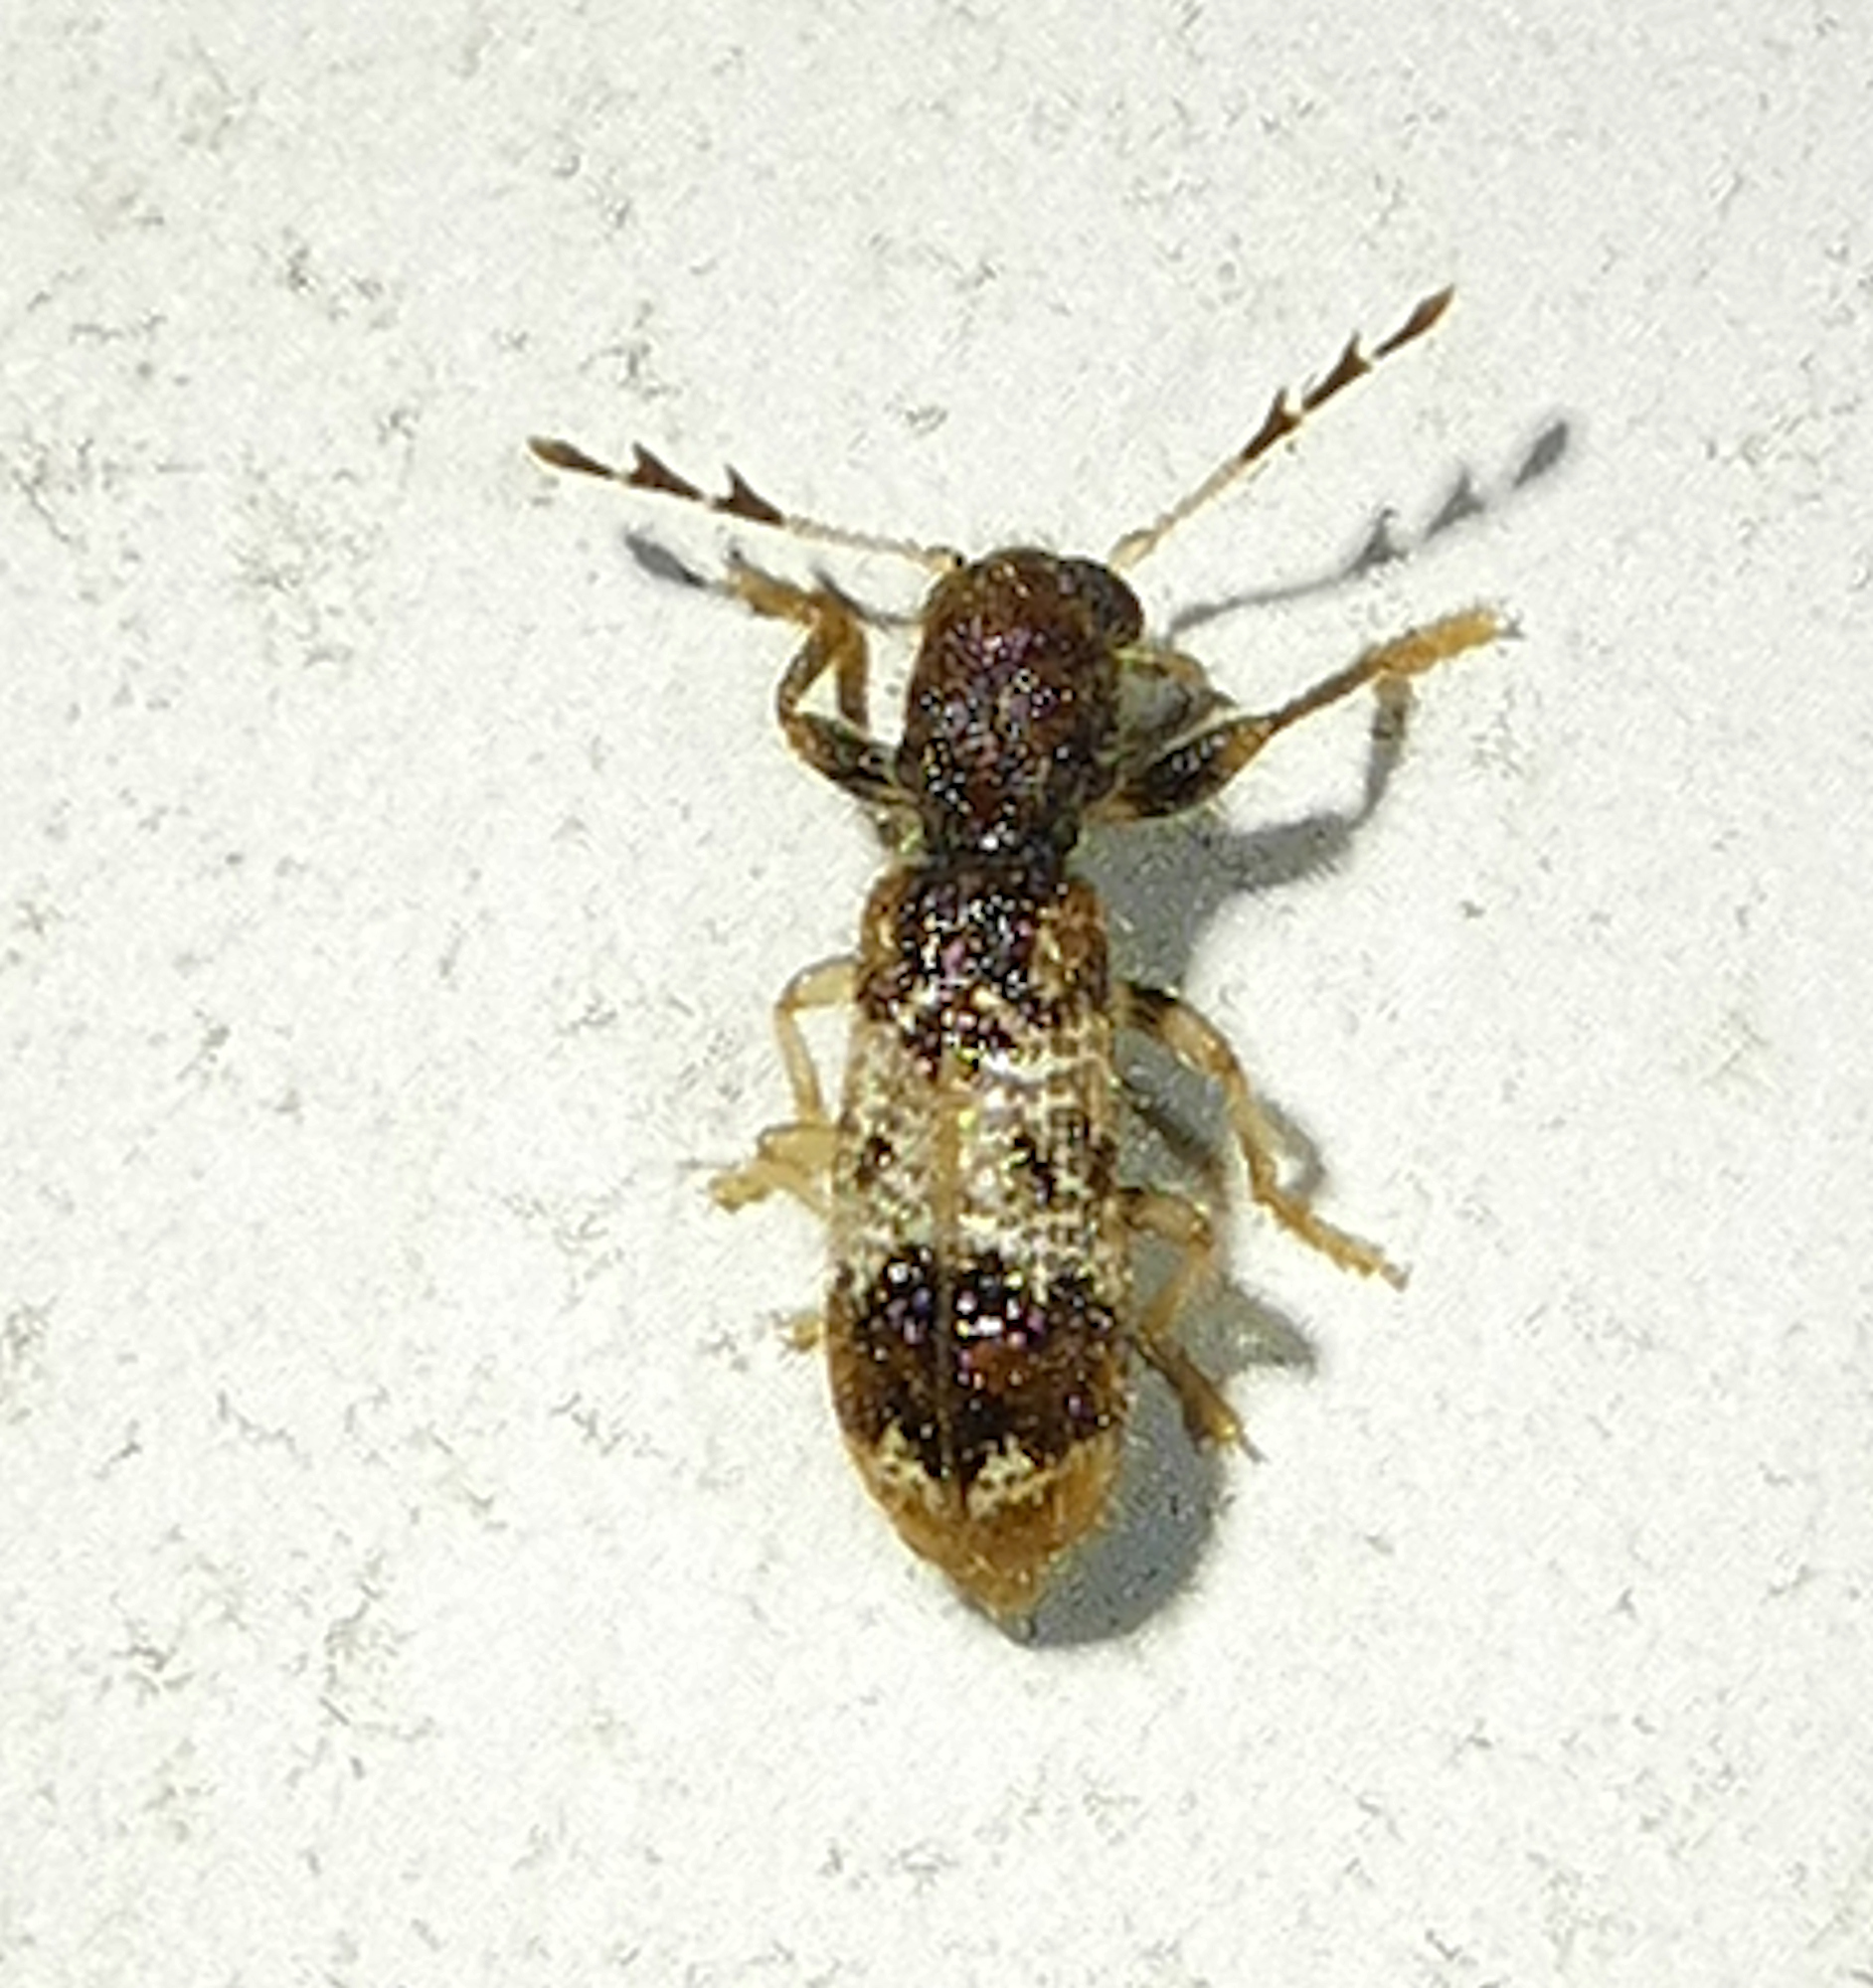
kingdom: Animalia
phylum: Arthropoda
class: Insecta
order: Coleoptera
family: Cleridae
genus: Pelonium
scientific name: Pelonium leucophaeum
